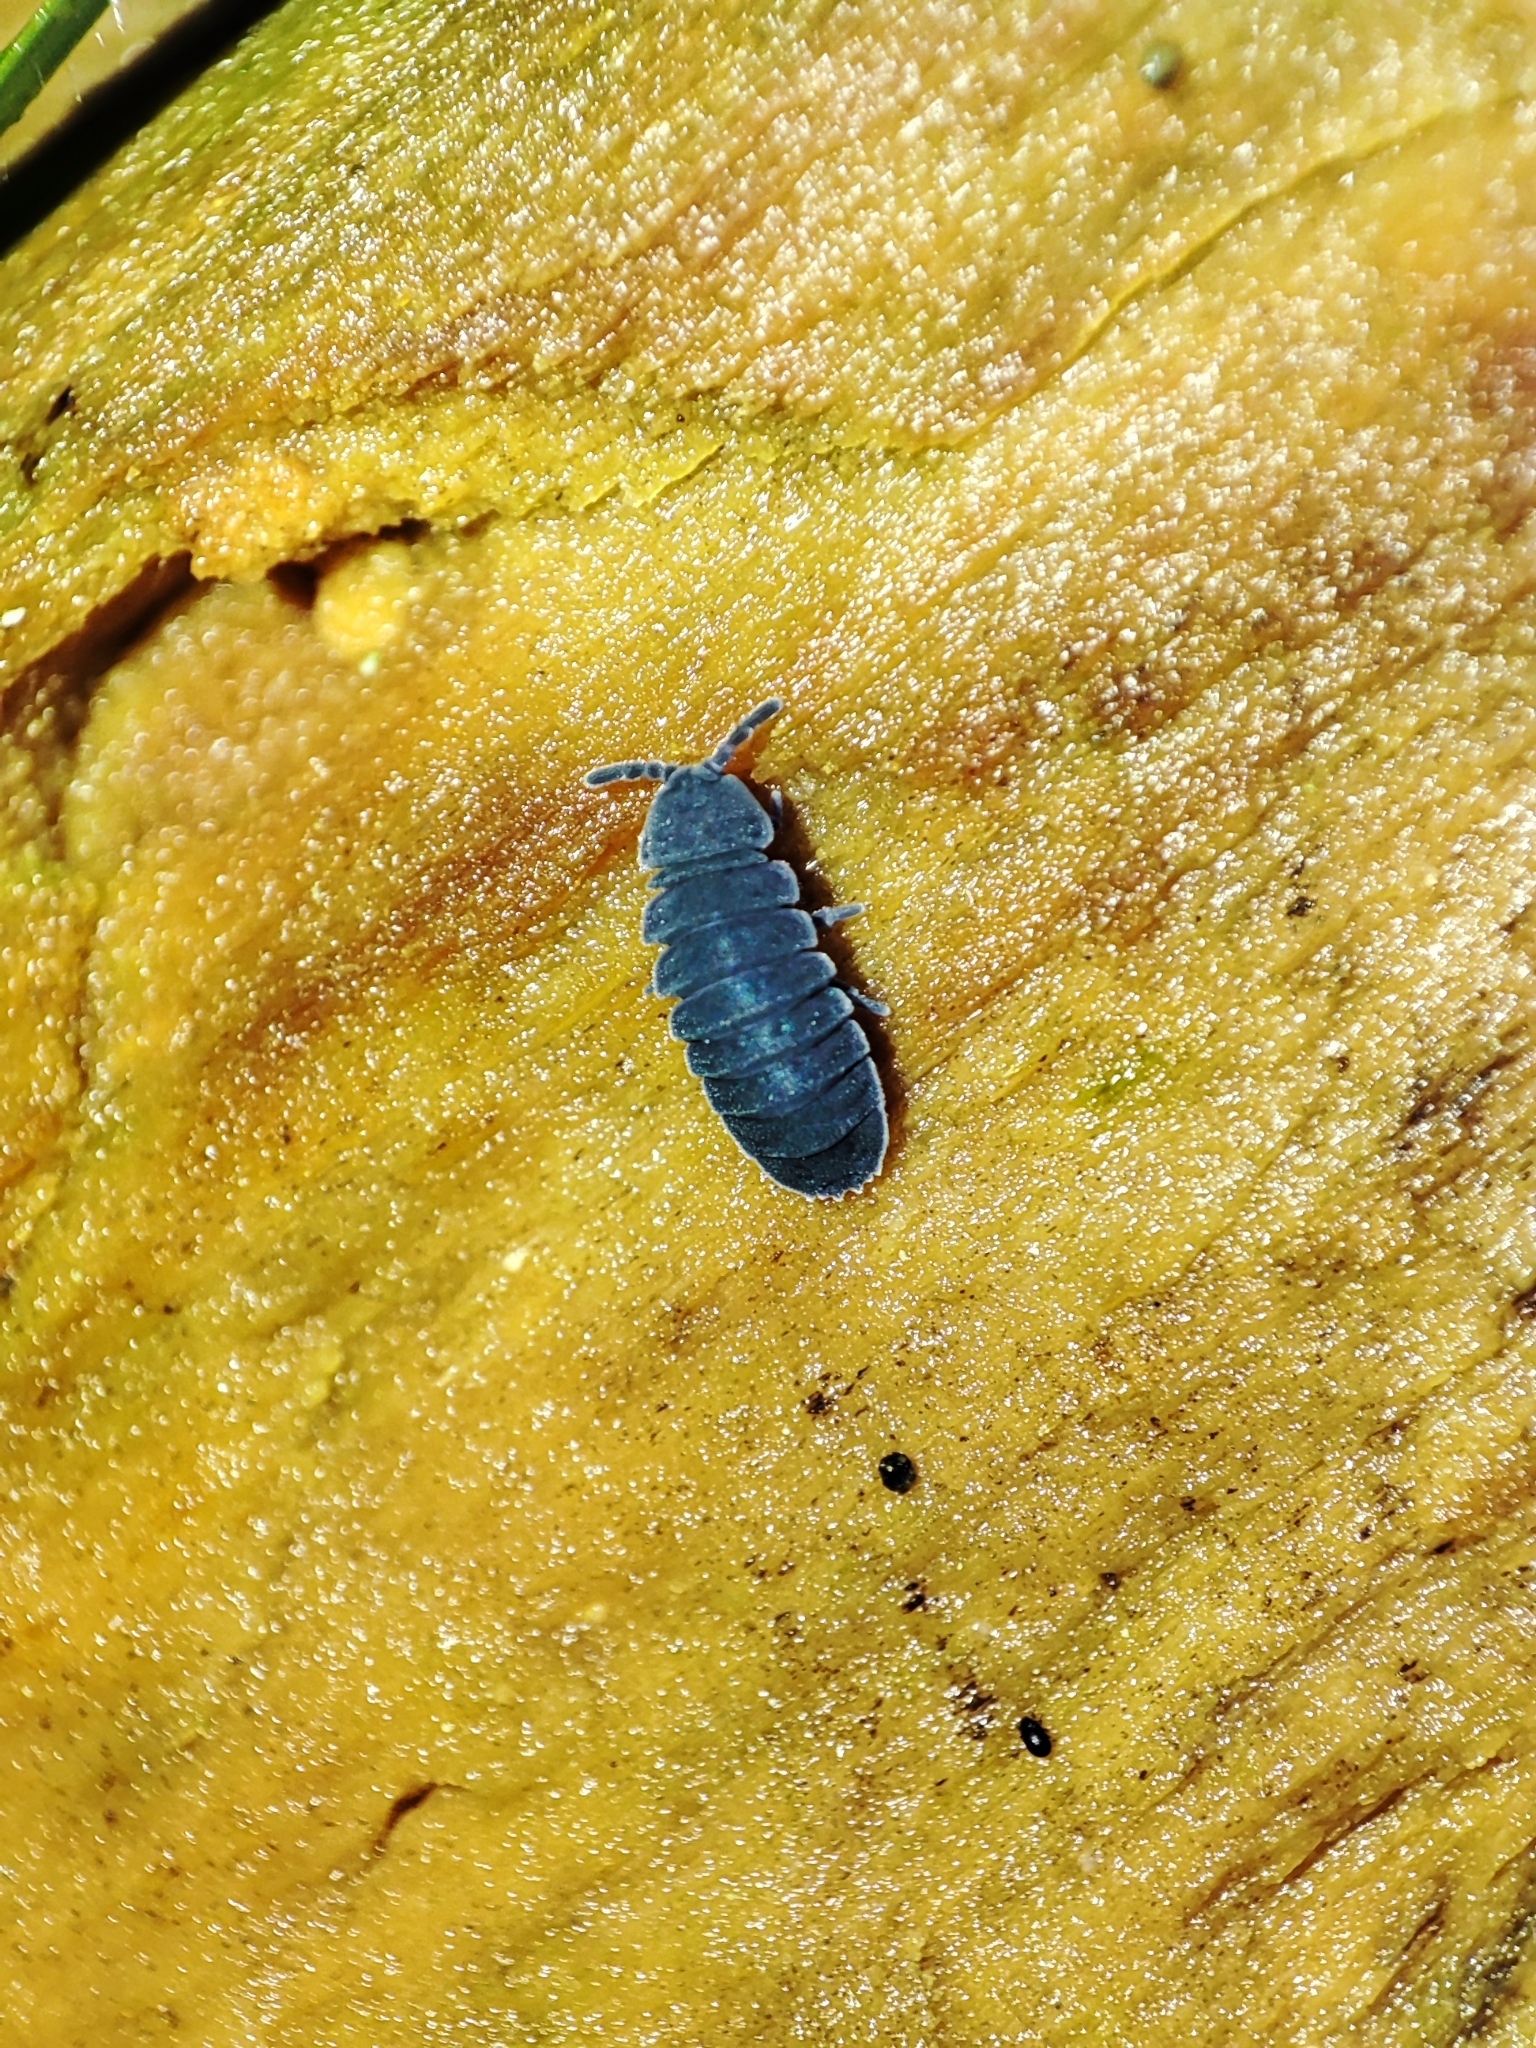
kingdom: Animalia
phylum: Arthropoda
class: Collembola
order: Poduromorpha
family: Onychiuridae
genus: Tetrodontophora
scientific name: Tetrodontophora bielanensis
